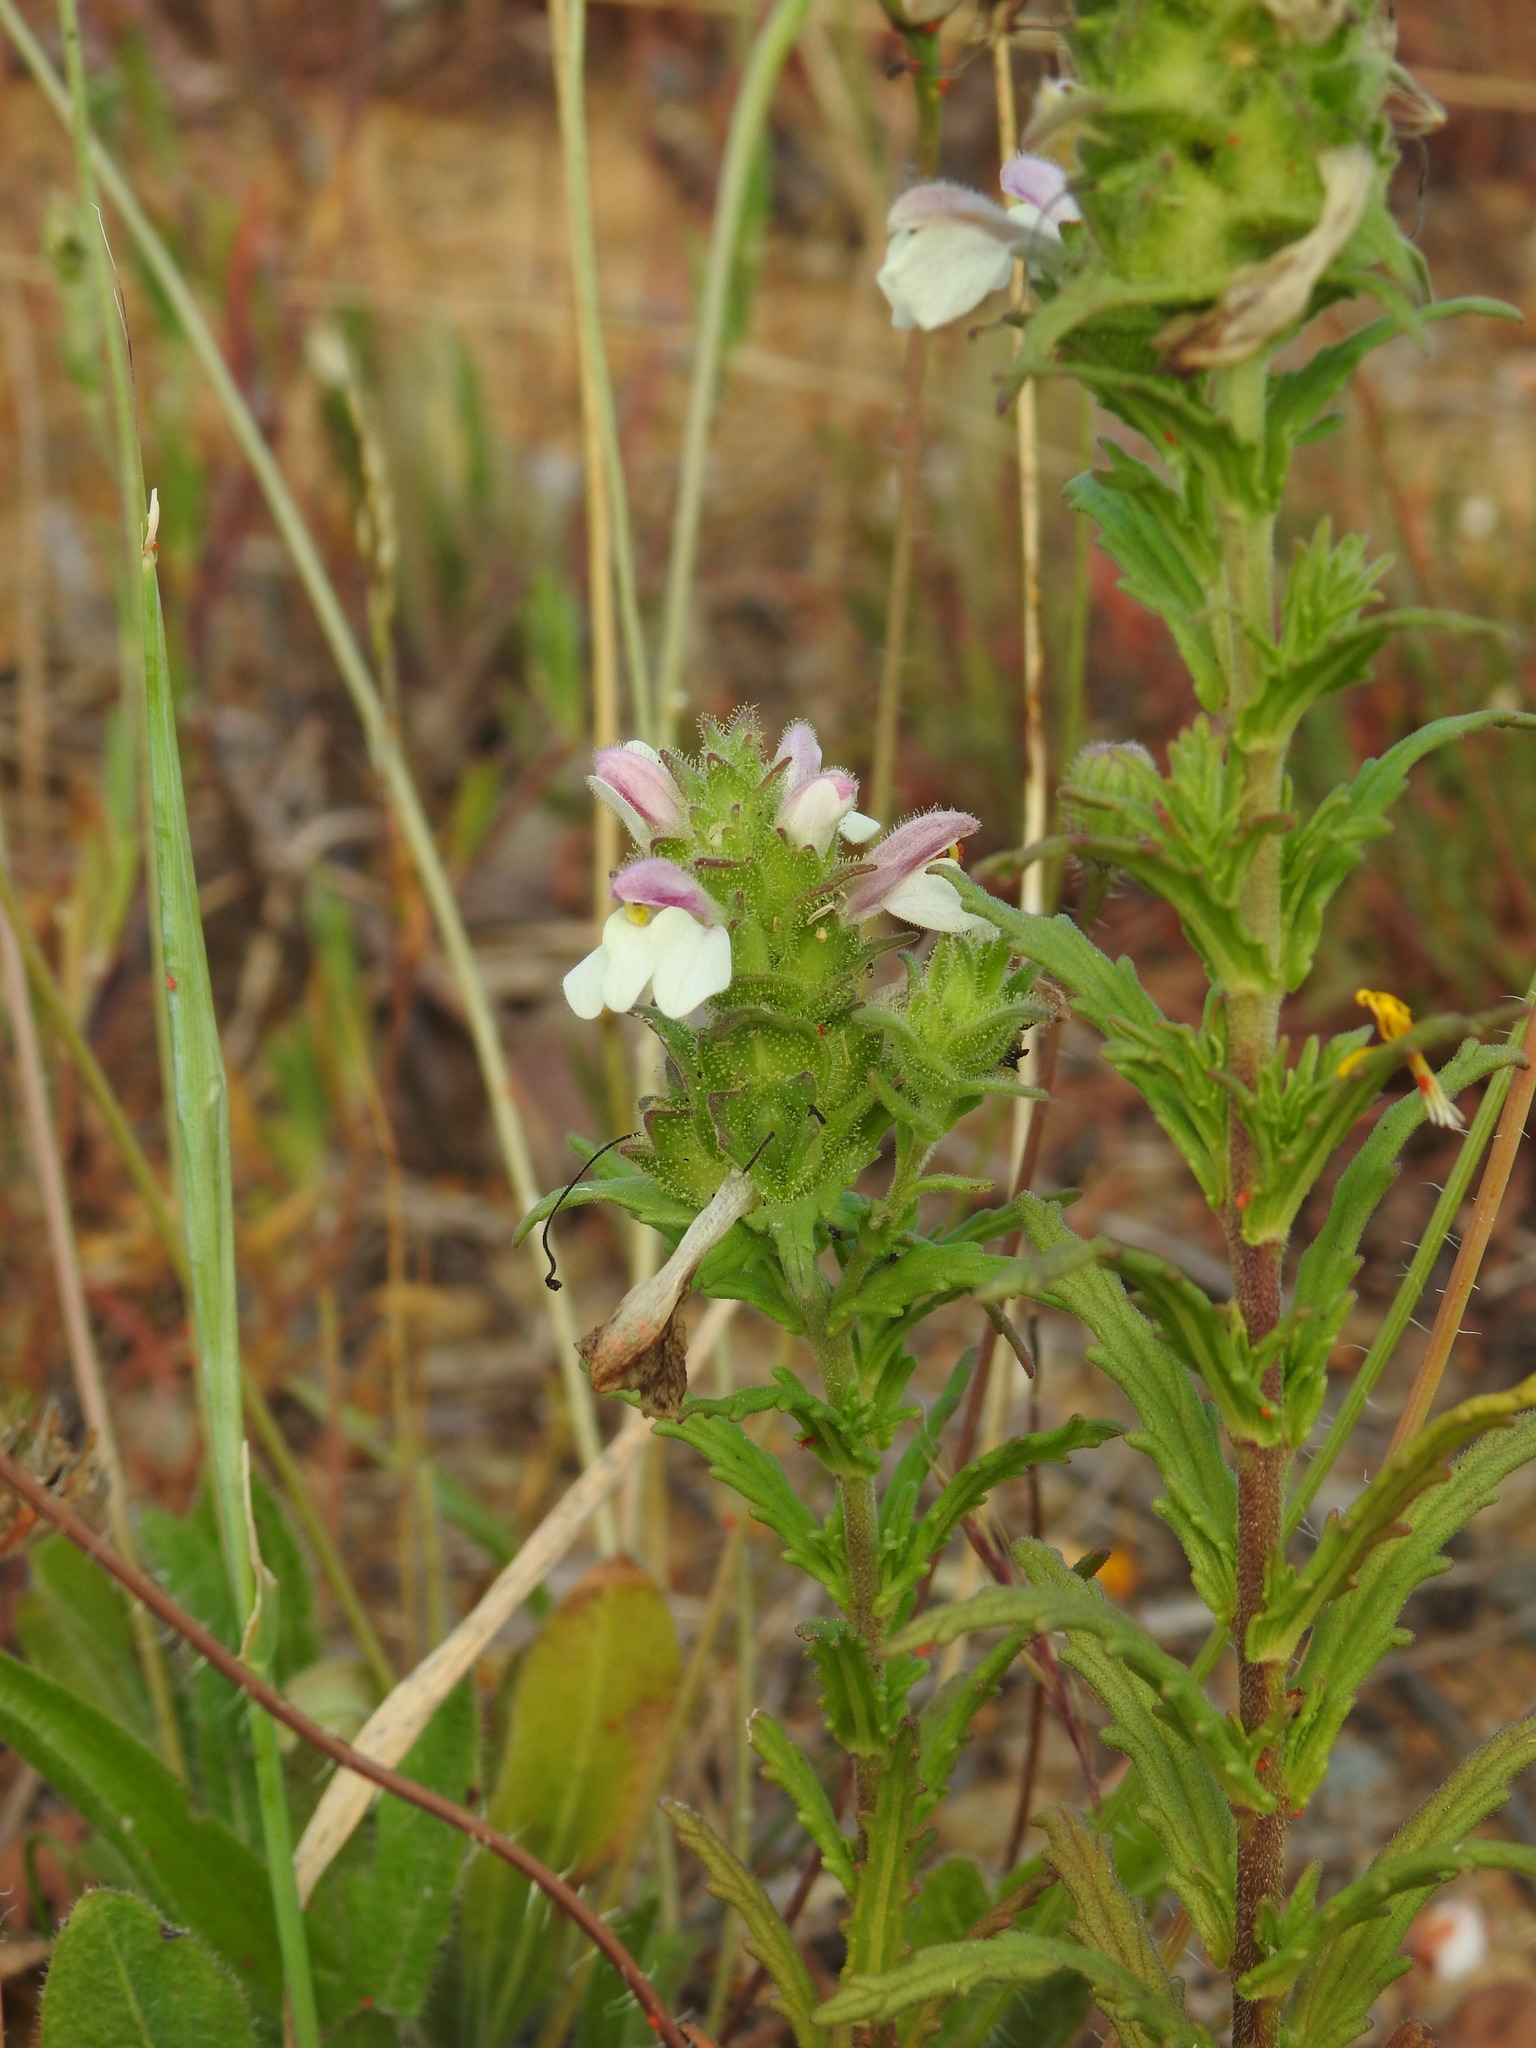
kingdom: Plantae
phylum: Tracheophyta
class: Magnoliopsida
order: Lamiales
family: Orobanchaceae
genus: Bellardia
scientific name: Bellardia trixago
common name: Mediterranean lineseed
